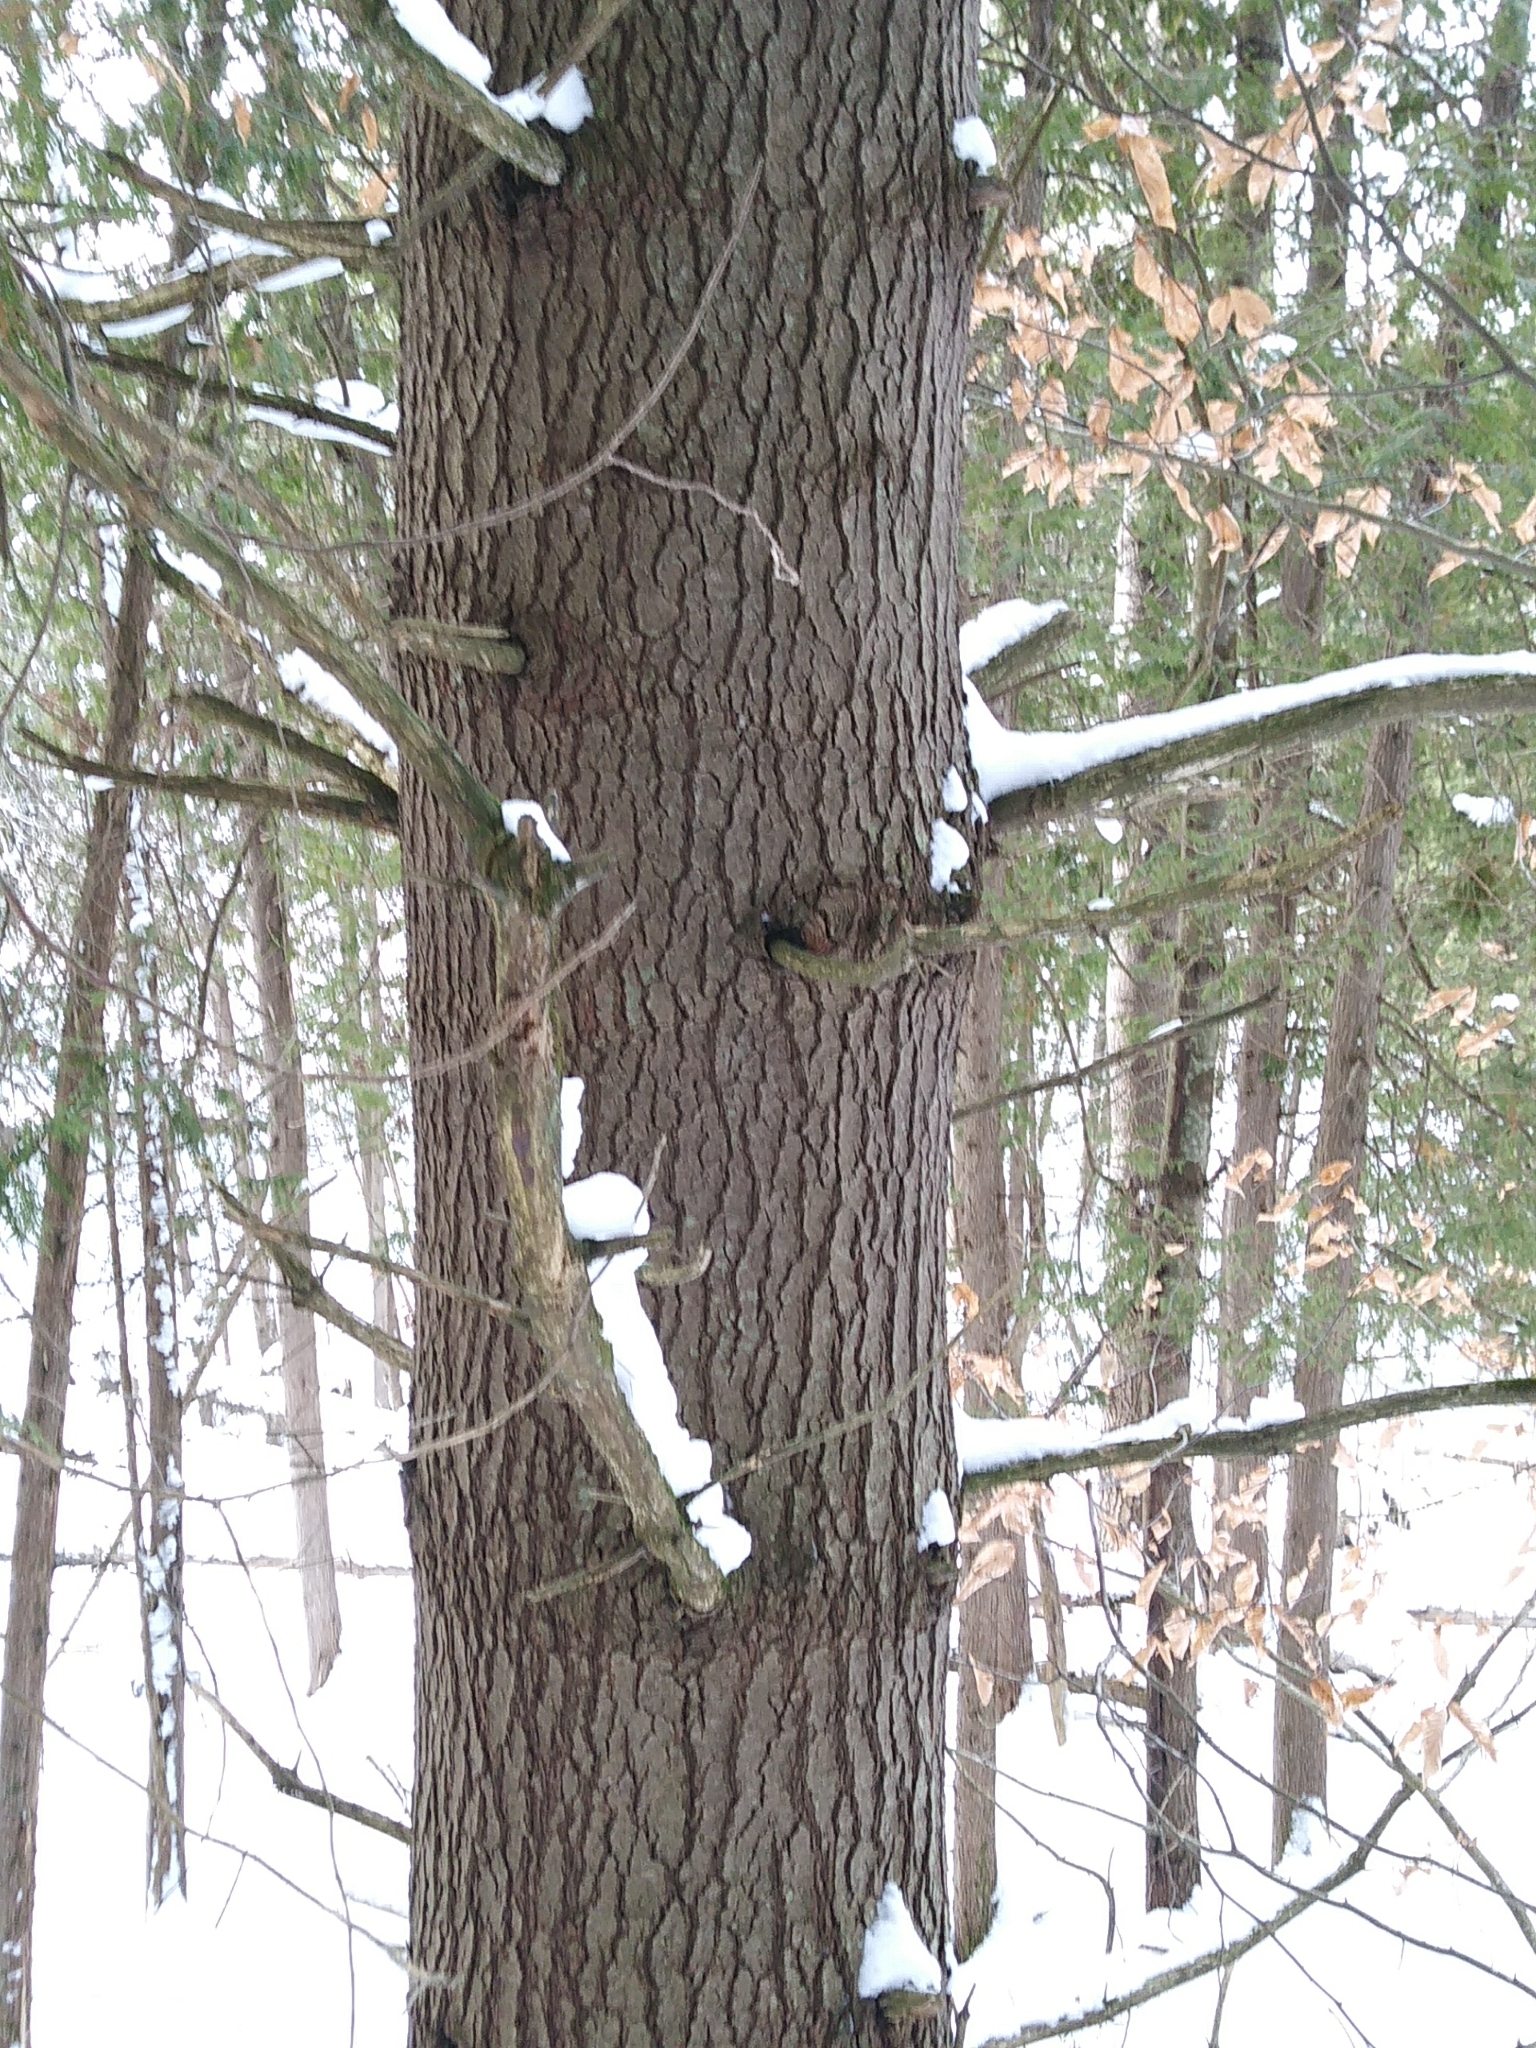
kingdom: Plantae
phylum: Tracheophyta
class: Pinopsida
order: Pinales
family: Pinaceae
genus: Pinus
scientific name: Pinus strobus
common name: Weymouth pine
